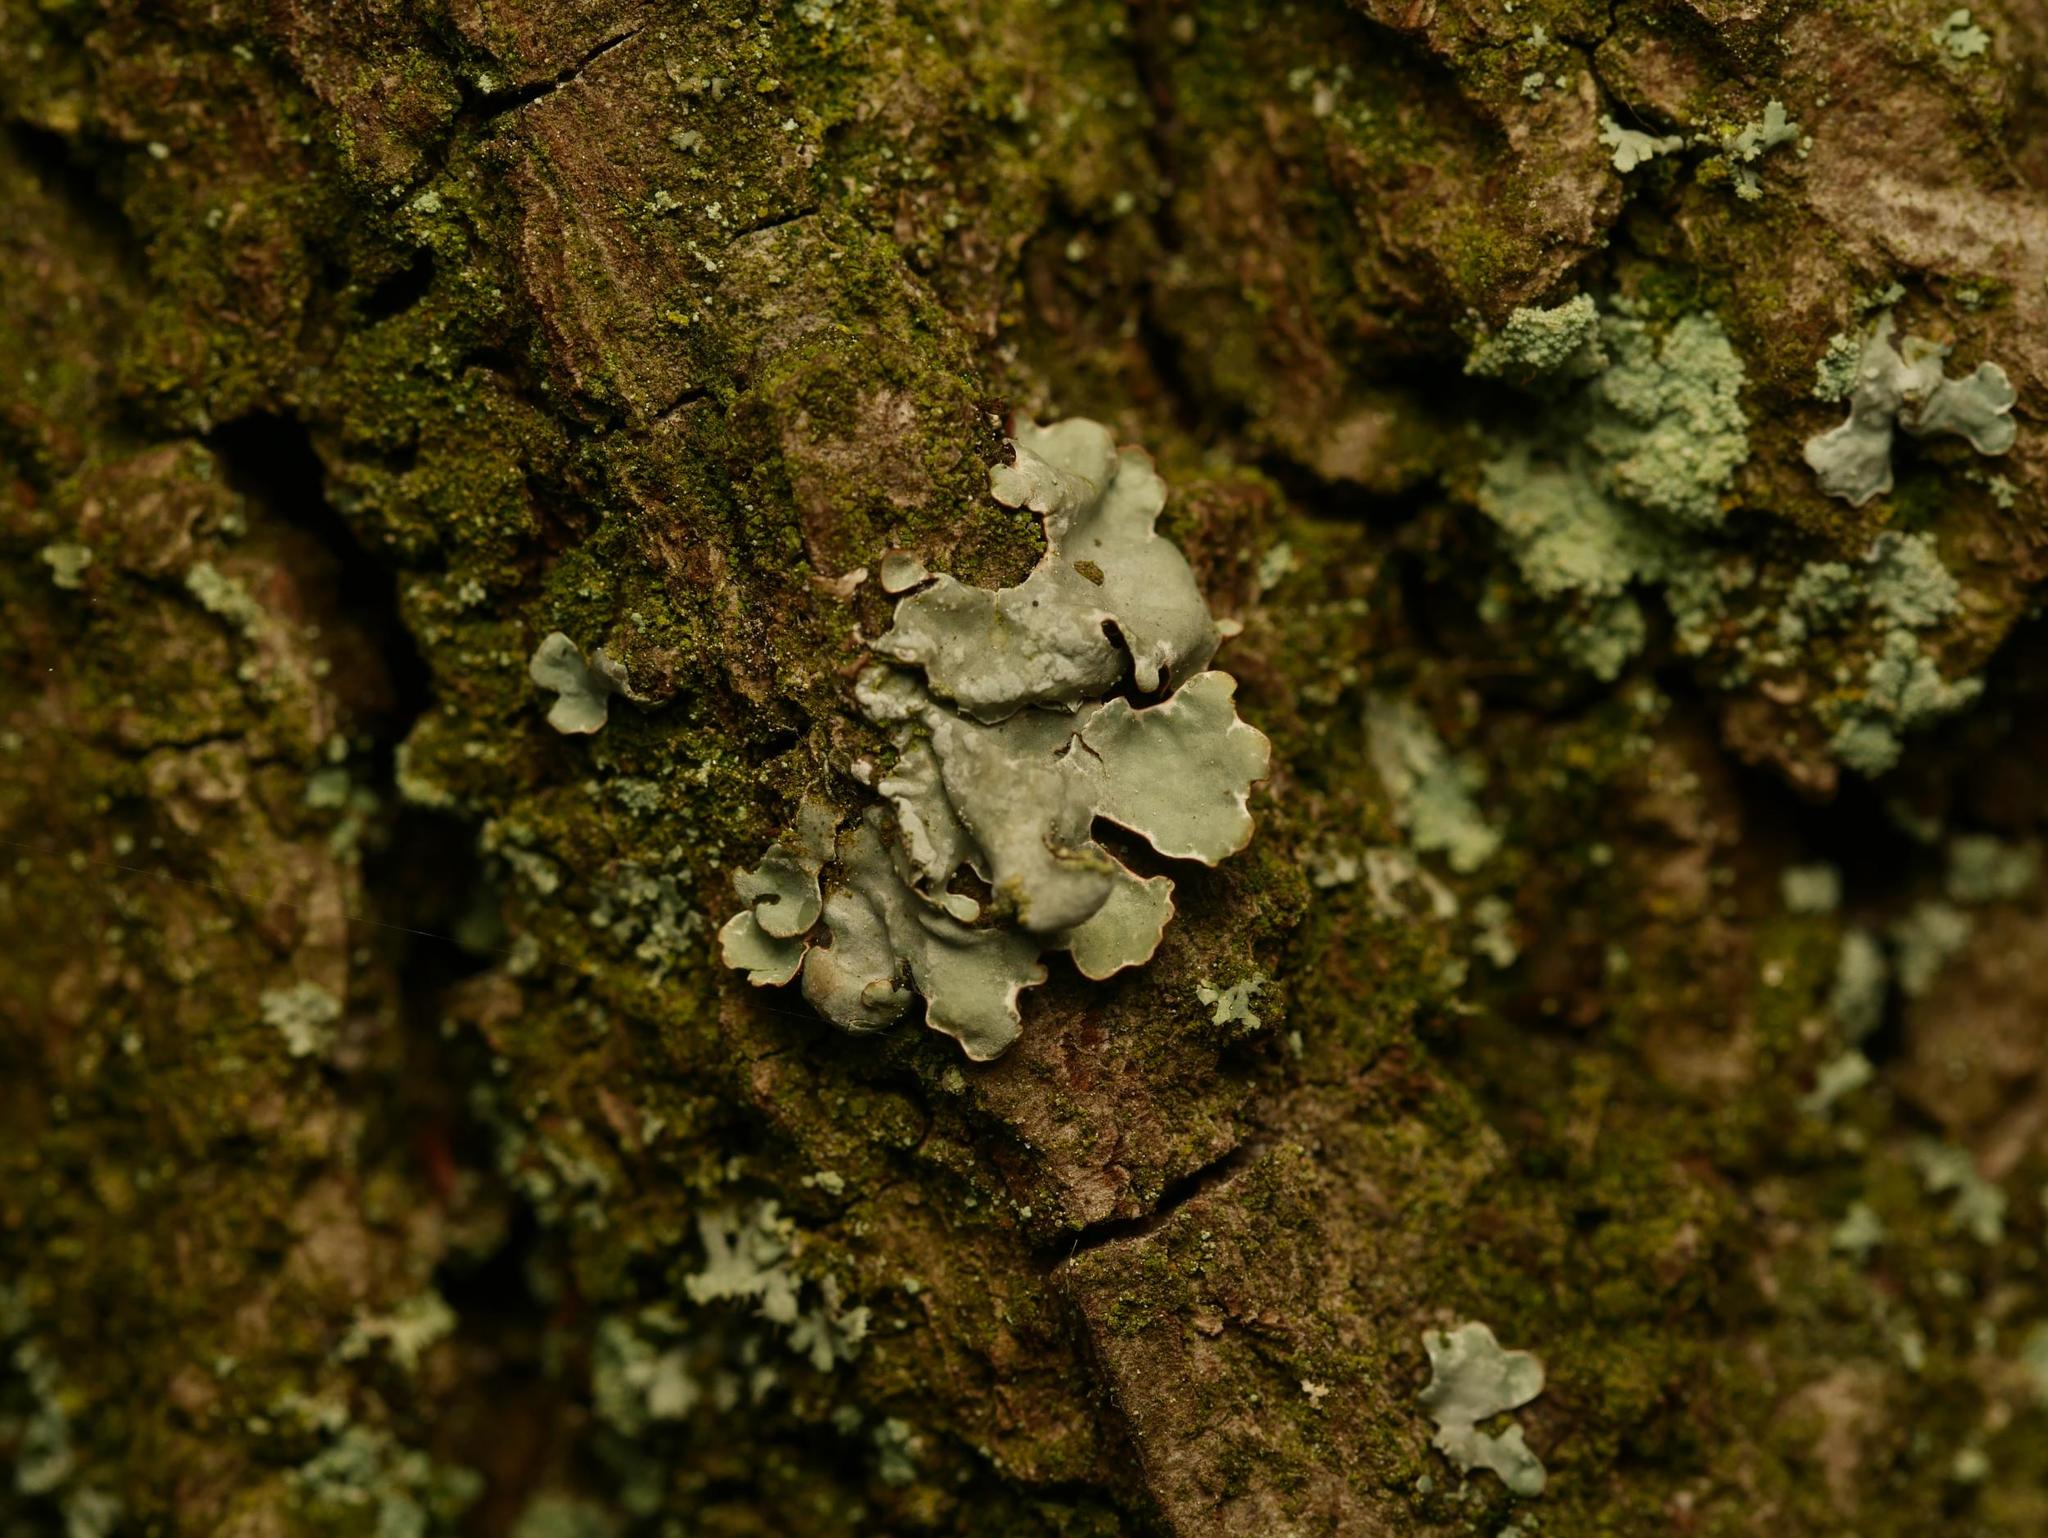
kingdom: Fungi
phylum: Ascomycota
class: Lecanoromycetes
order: Lecanorales
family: Parmeliaceae
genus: Parmelia
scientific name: Parmelia sulcata
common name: Netted shield lichen
